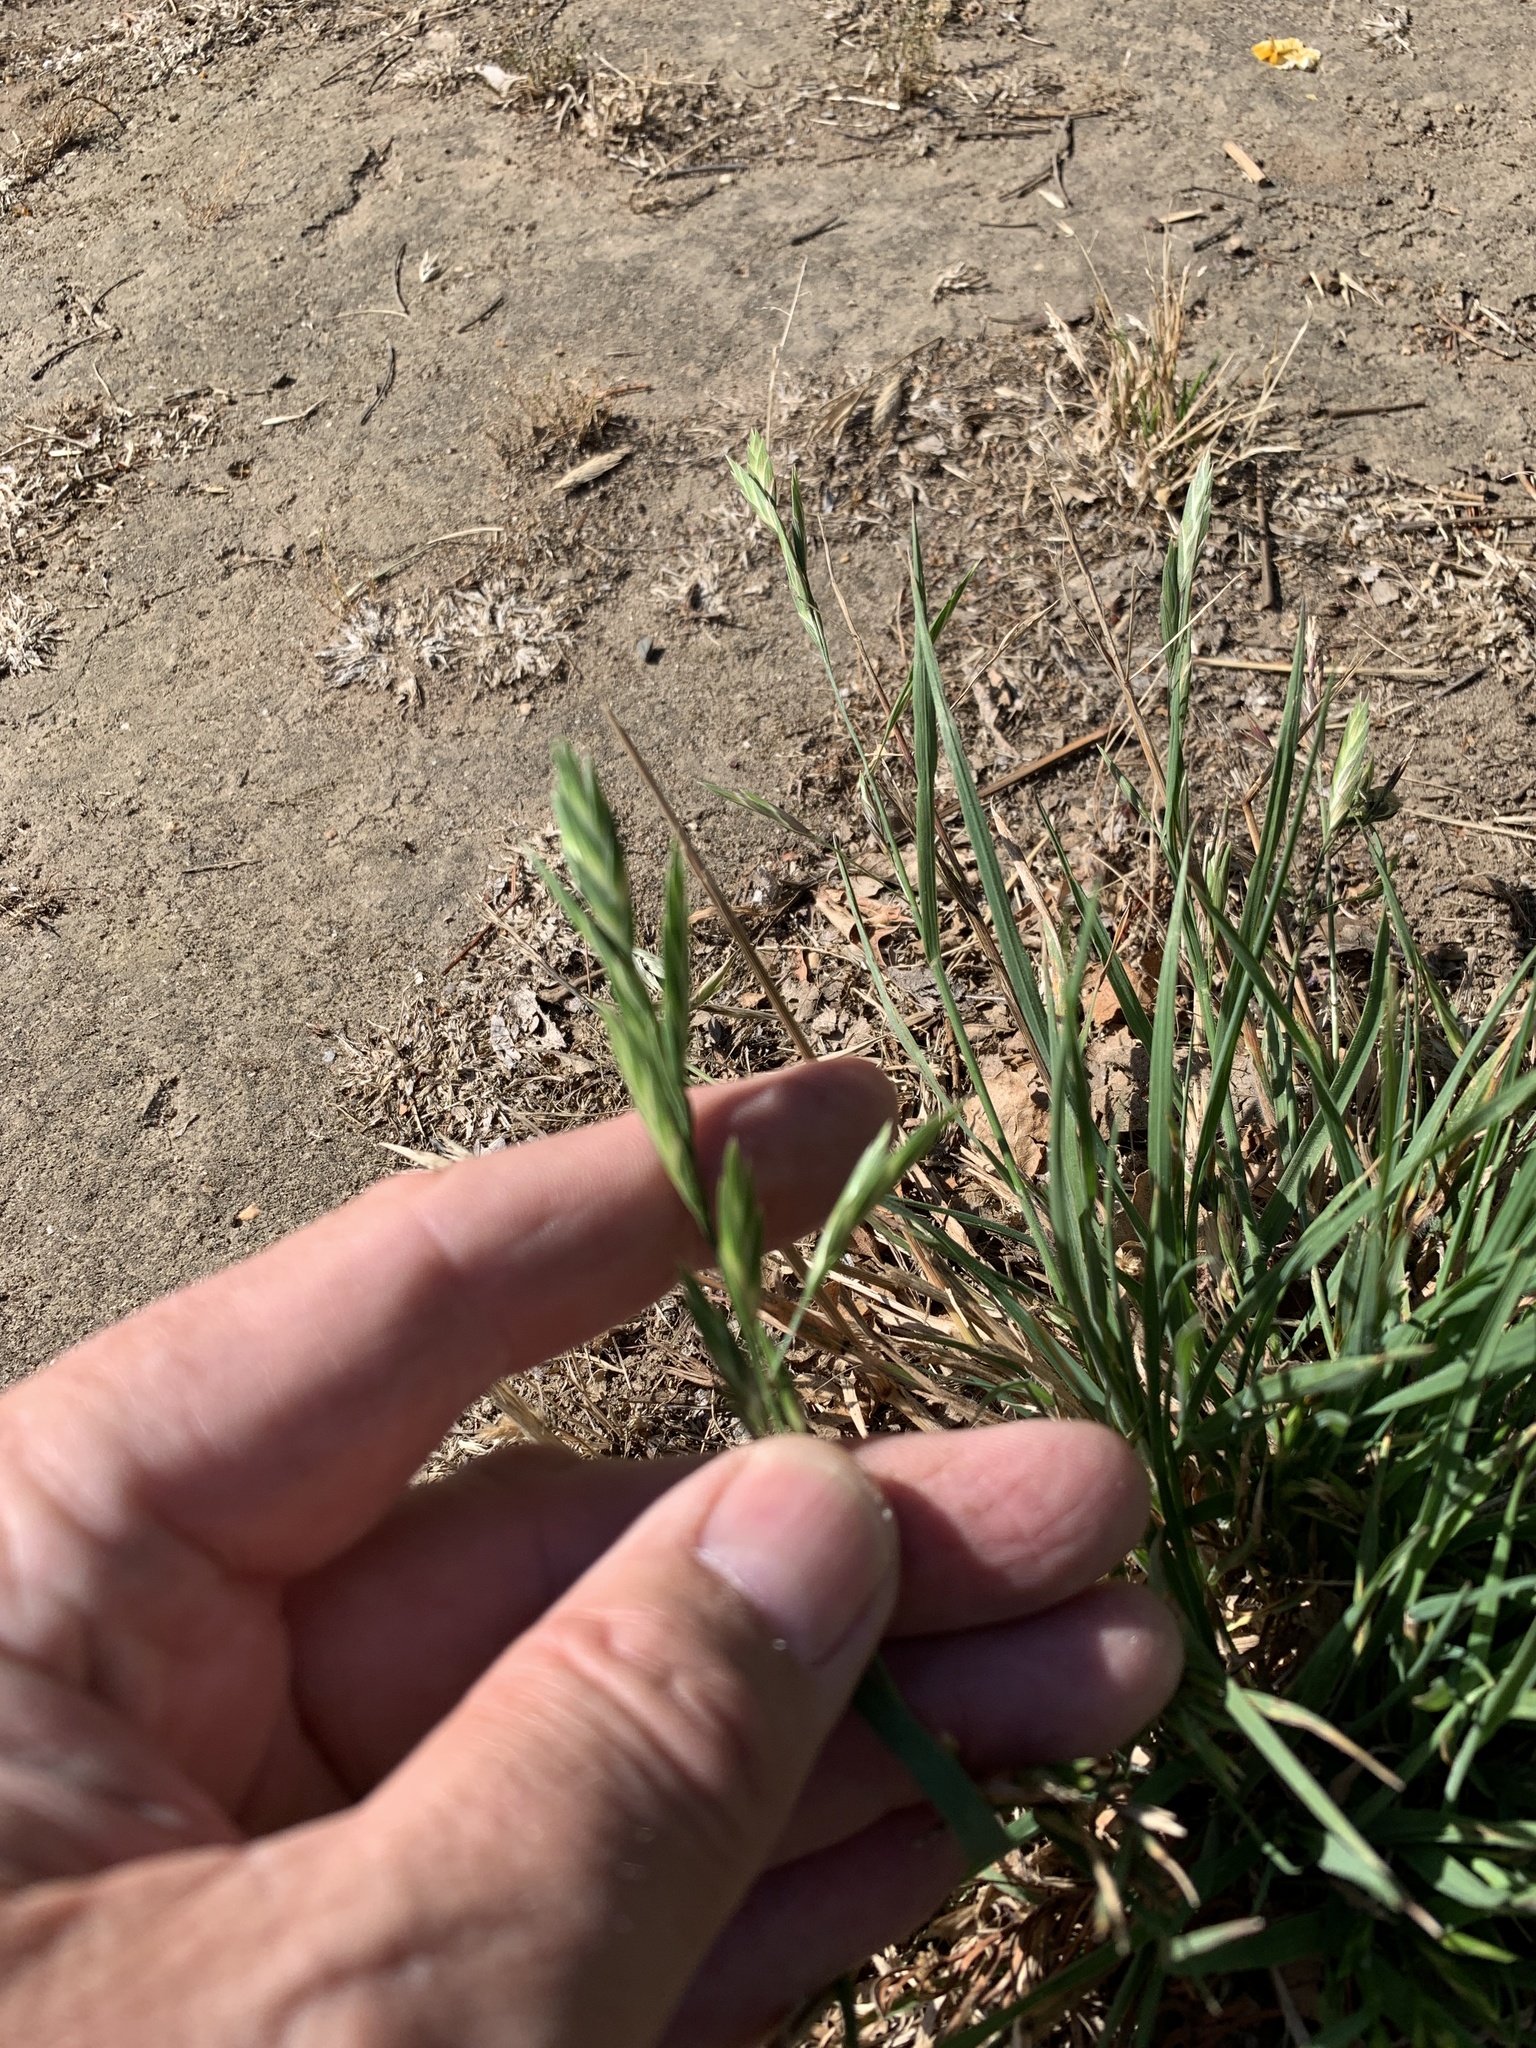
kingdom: Plantae
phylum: Tracheophyta
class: Liliopsida
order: Poales
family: Poaceae
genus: Bromus
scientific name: Bromus catharticus
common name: Rescuegrass
